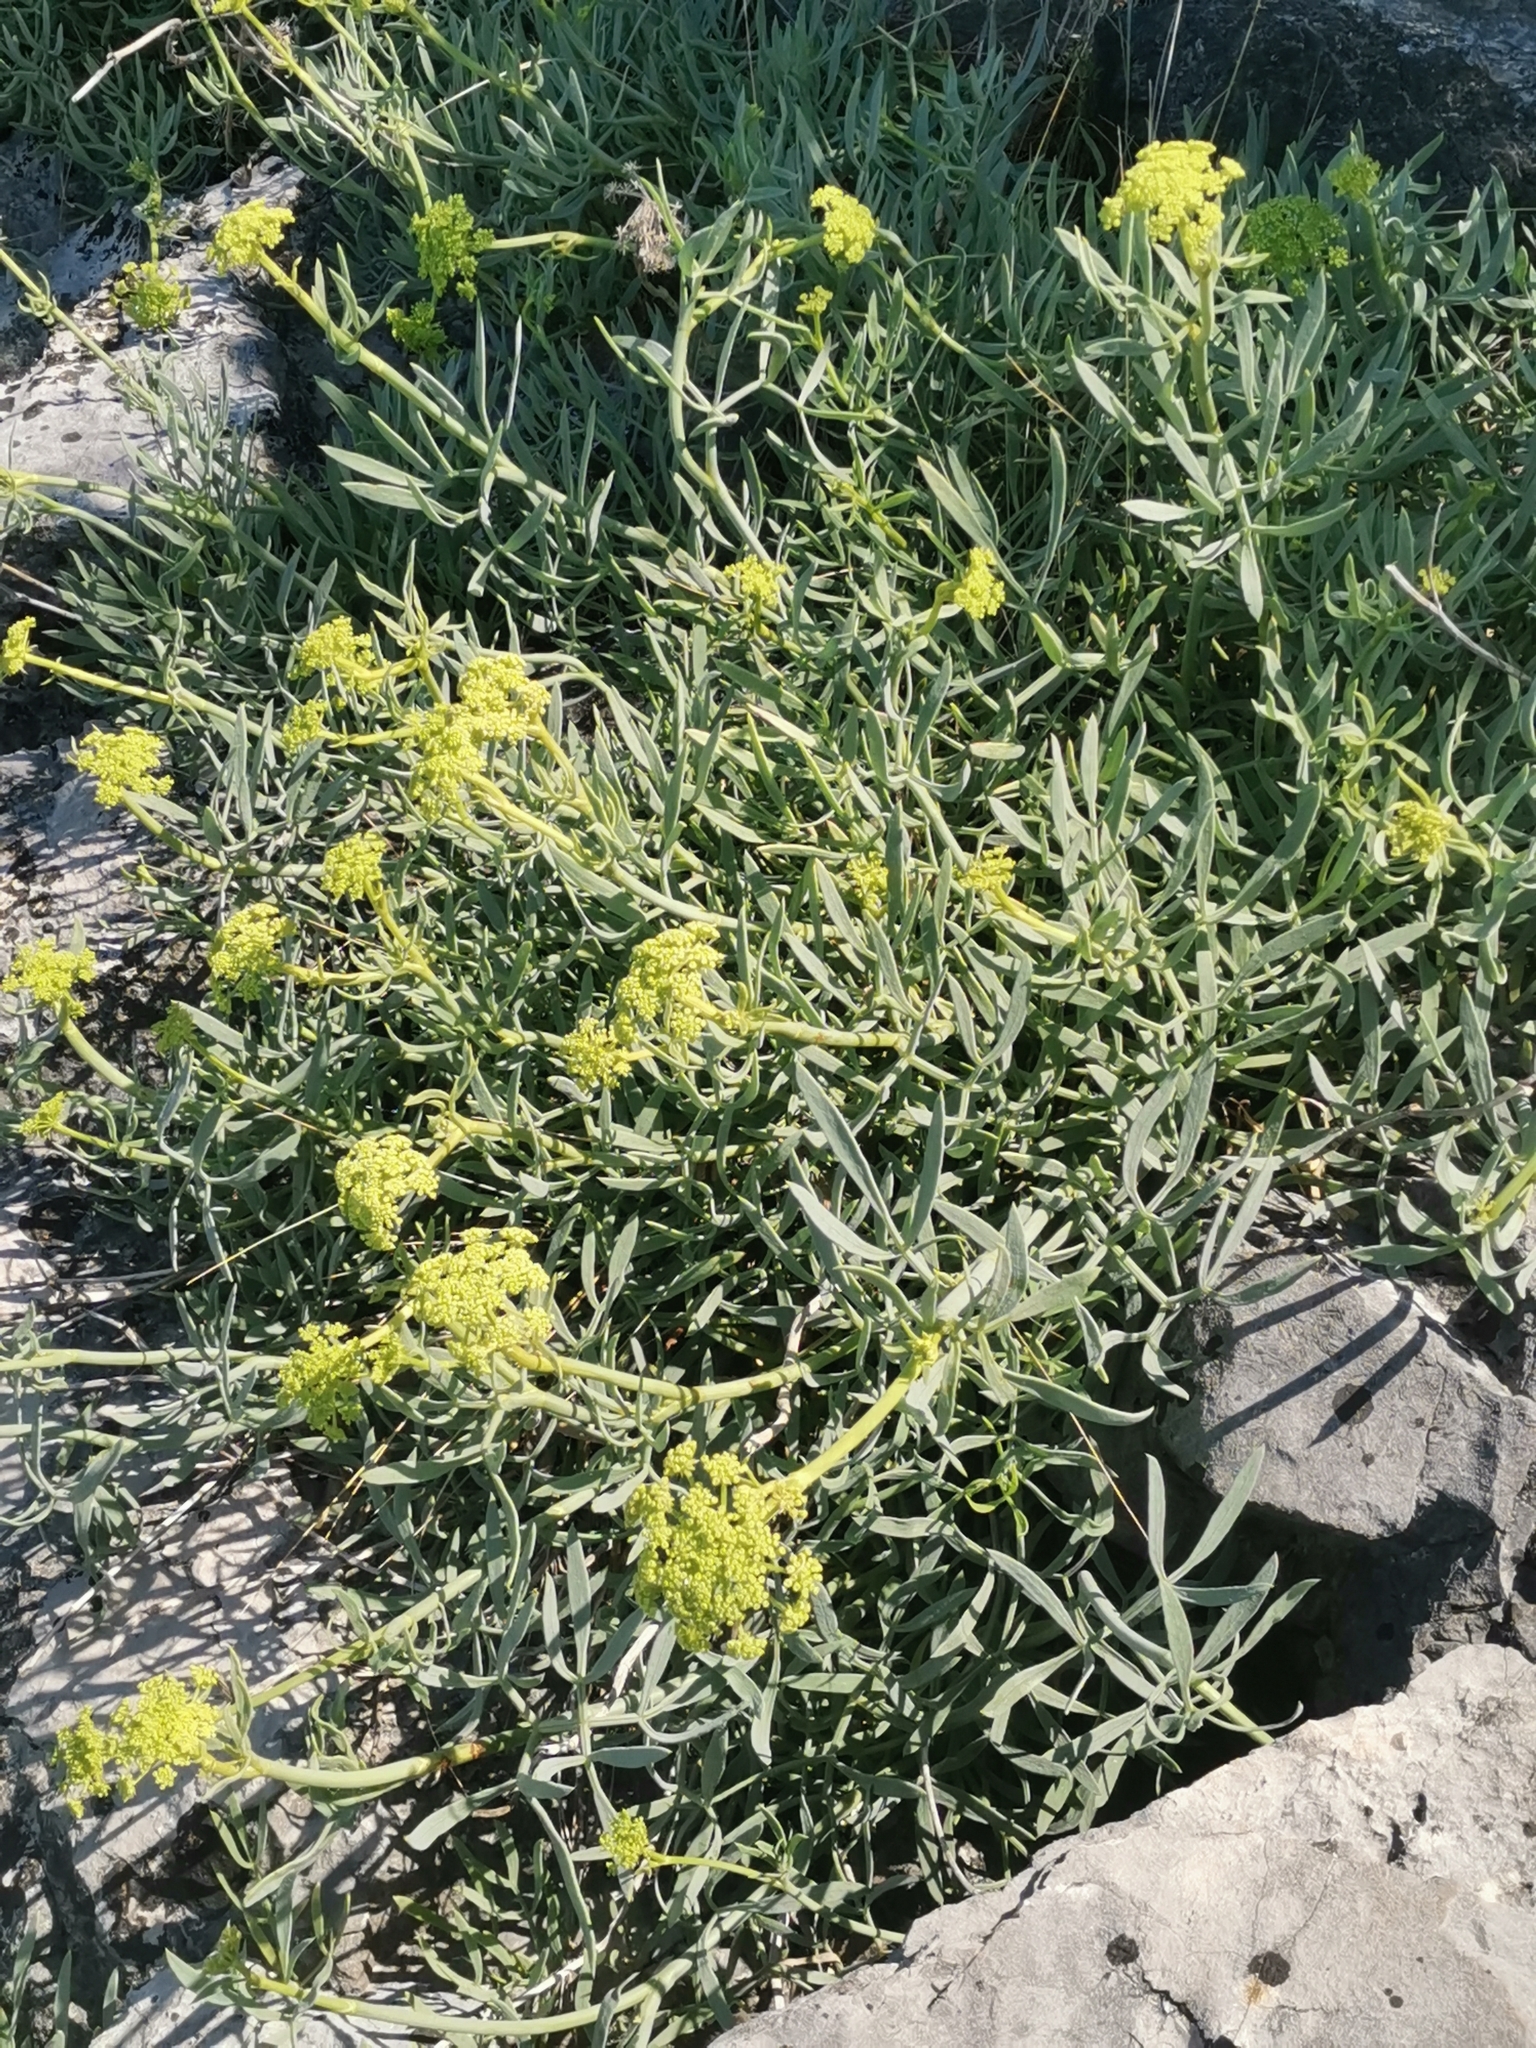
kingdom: Plantae
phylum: Tracheophyta
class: Magnoliopsida
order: Apiales
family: Apiaceae
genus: Crithmum
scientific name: Crithmum maritimum
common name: Rock samphire
